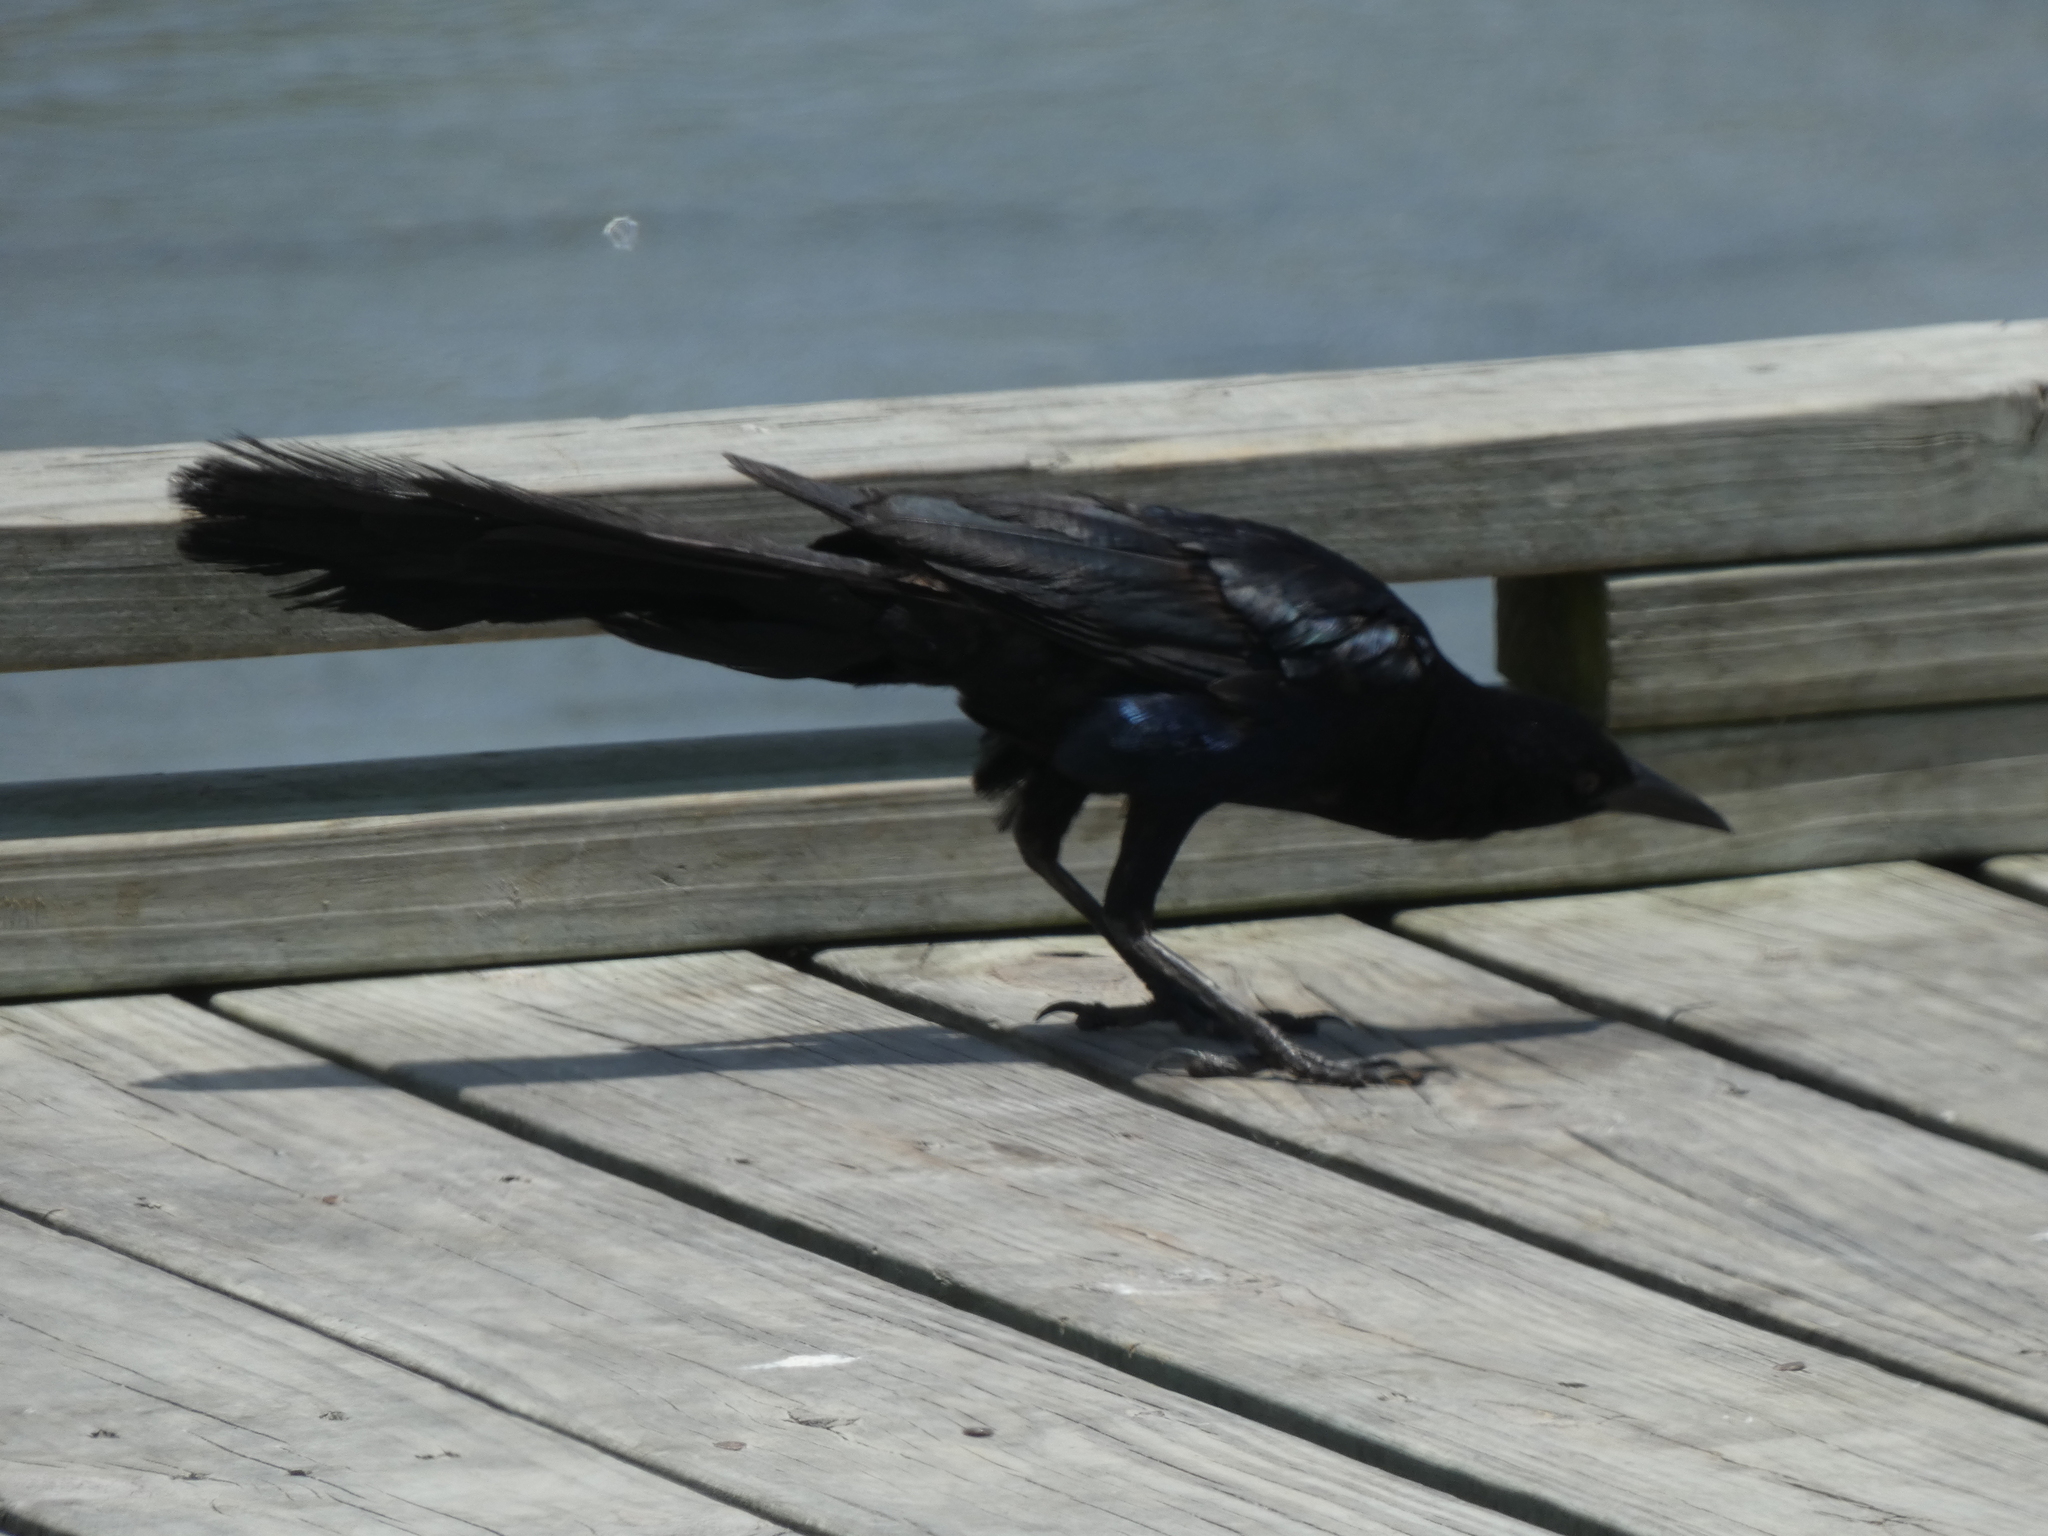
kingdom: Animalia
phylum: Chordata
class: Aves
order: Passeriformes
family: Icteridae
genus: Quiscalus
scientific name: Quiscalus major
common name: Boat-tailed grackle
